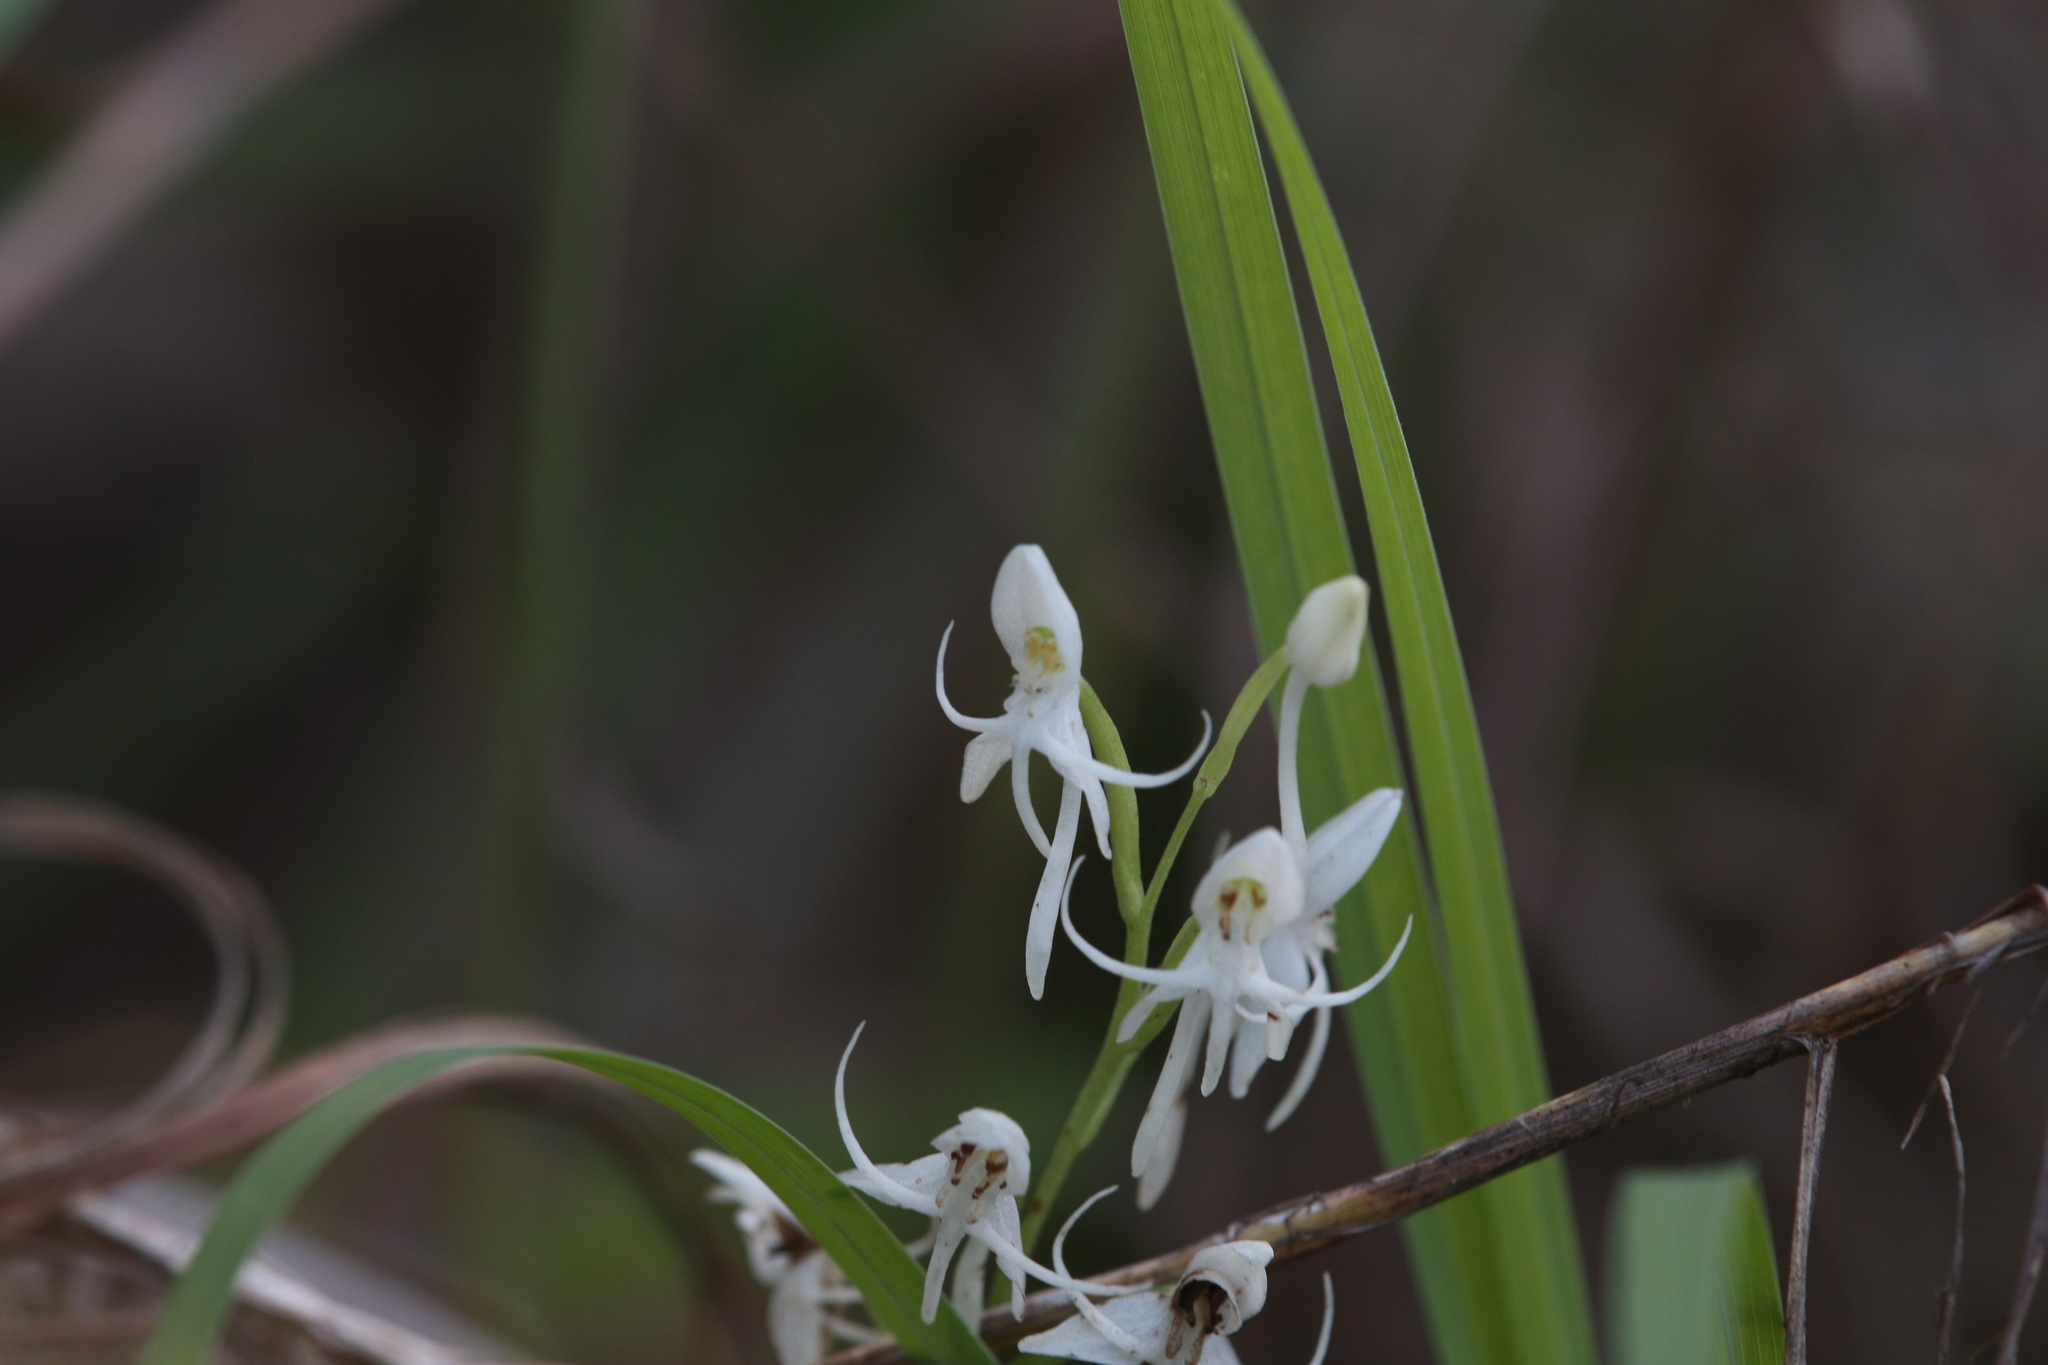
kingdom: Plantae
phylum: Tracheophyta
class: Liliopsida
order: Asparagales
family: Orchidaceae
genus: Habenaria
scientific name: Habenaria propinquior
